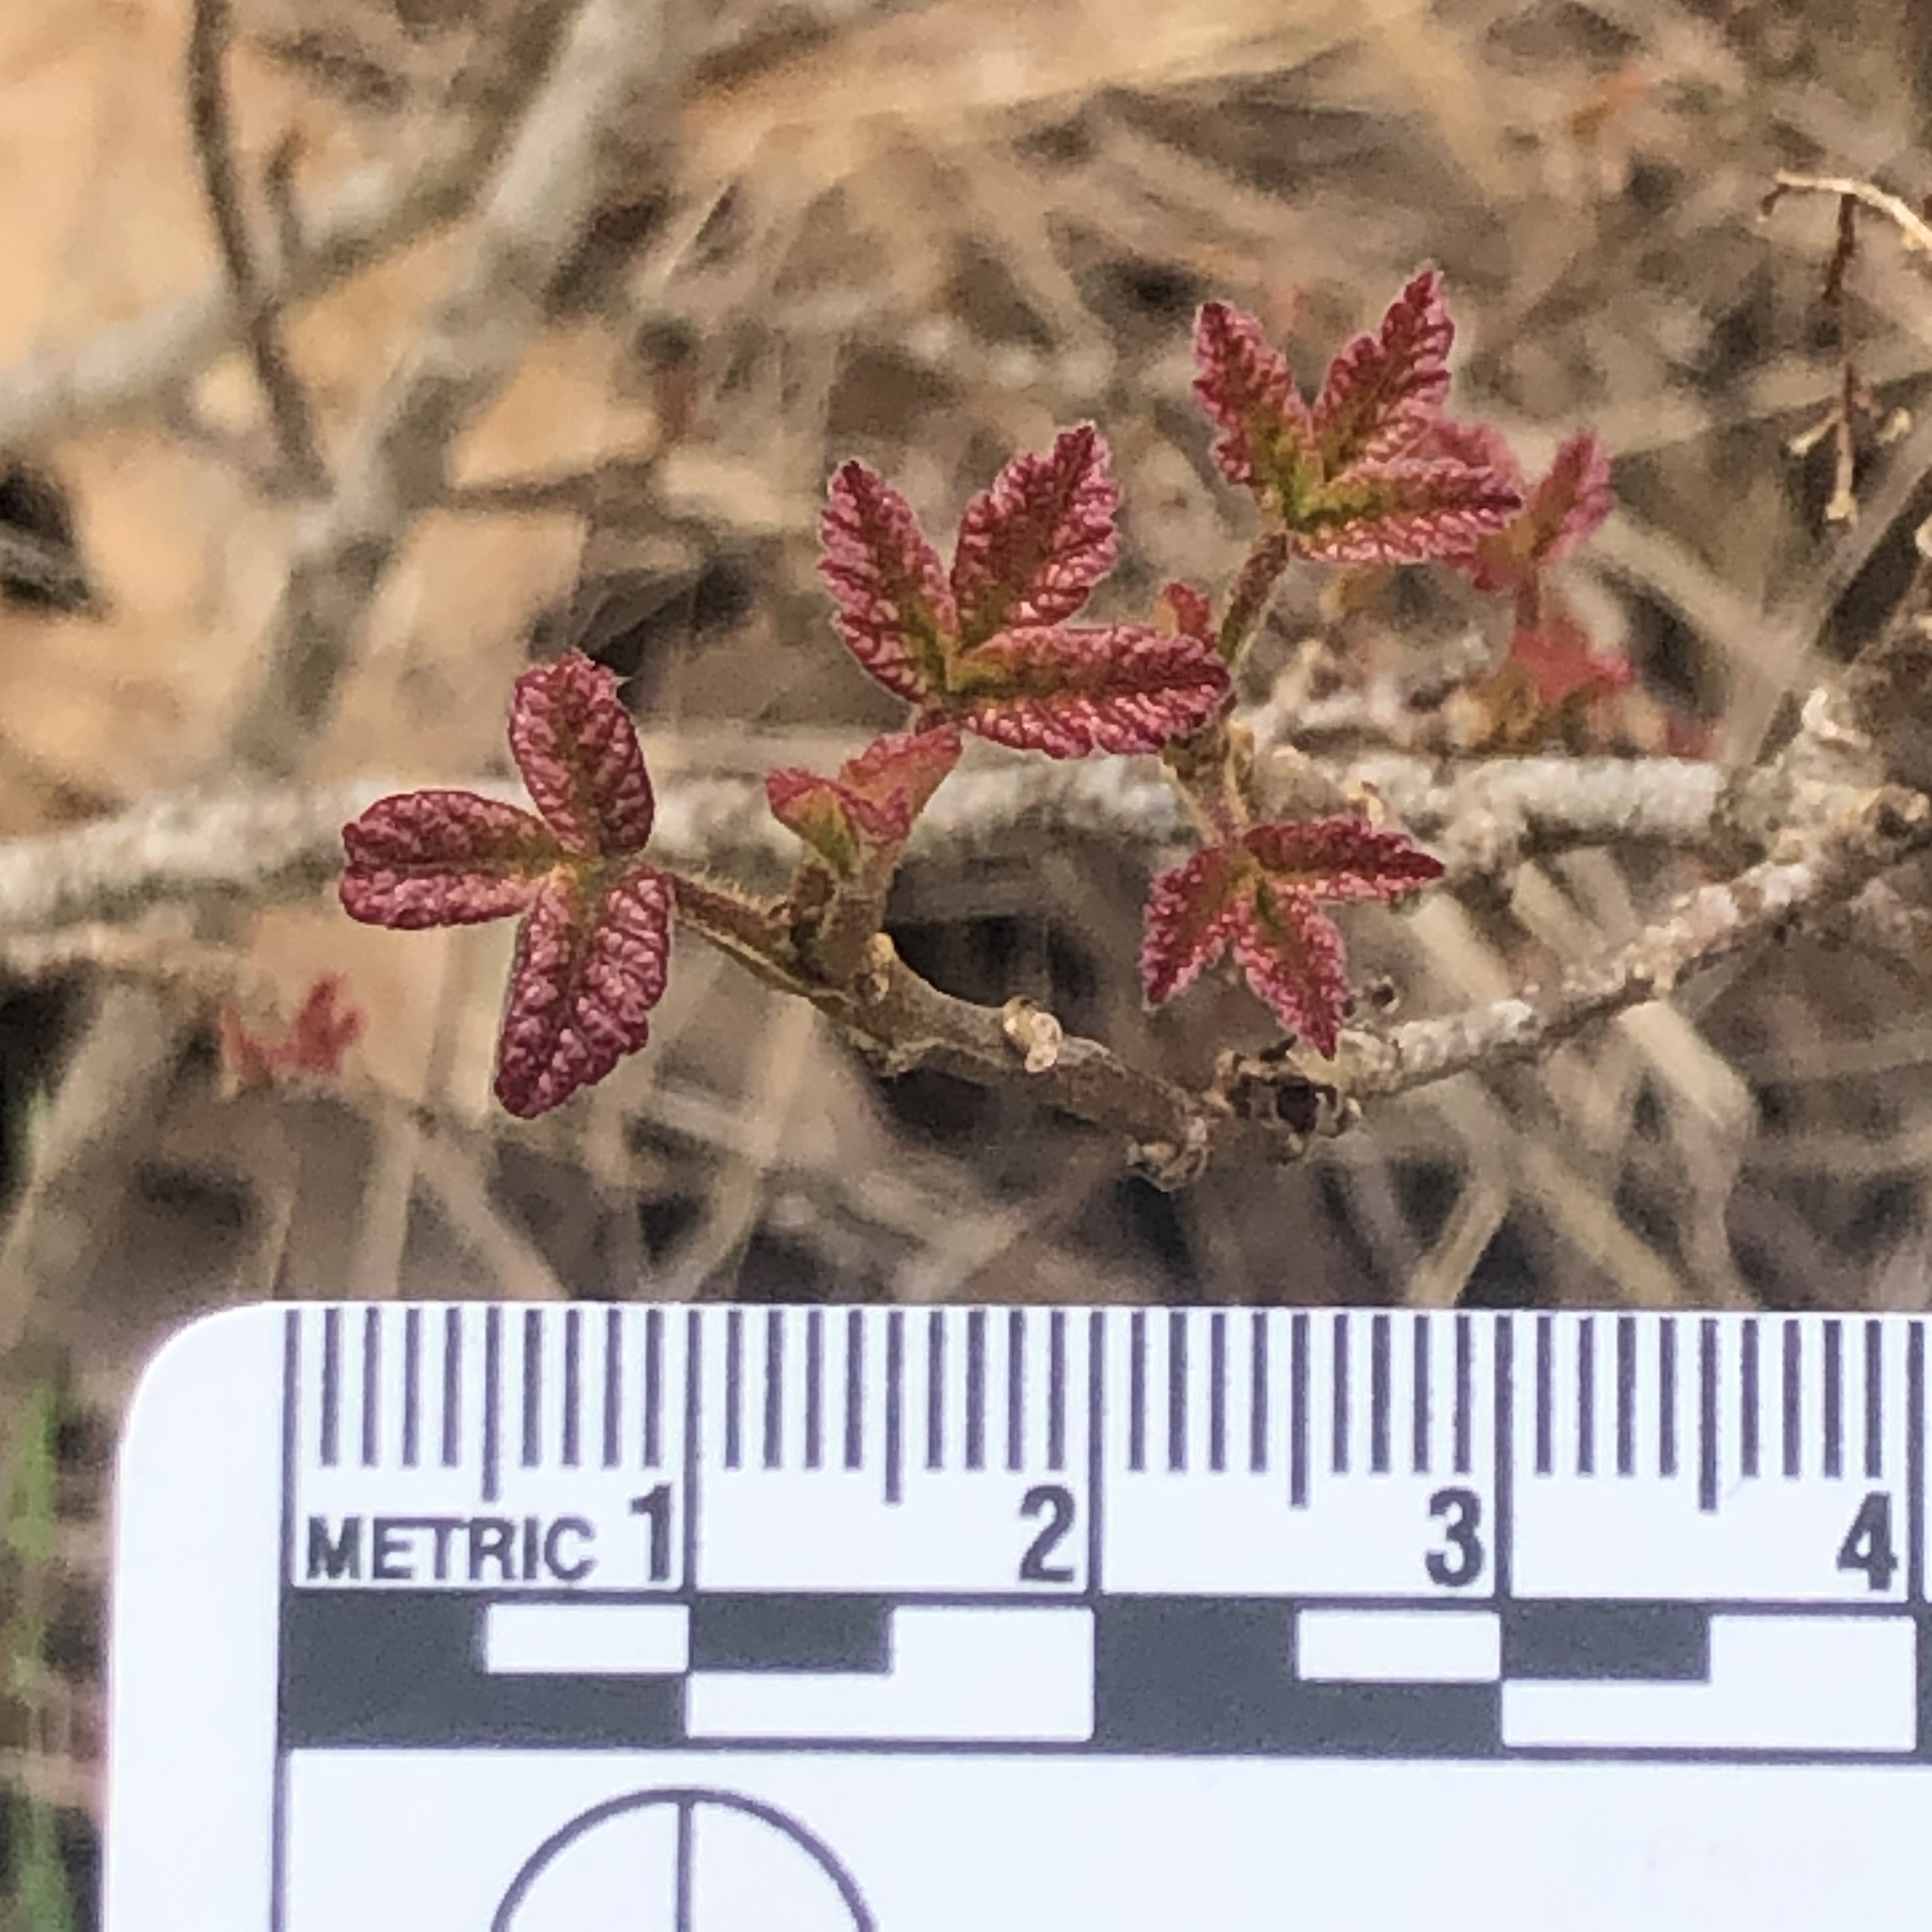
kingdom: Plantae
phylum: Tracheophyta
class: Magnoliopsida
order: Sapindales
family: Anacardiaceae
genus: Toxicodendron
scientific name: Toxicodendron diversilobum
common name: Pacific poison-oak
